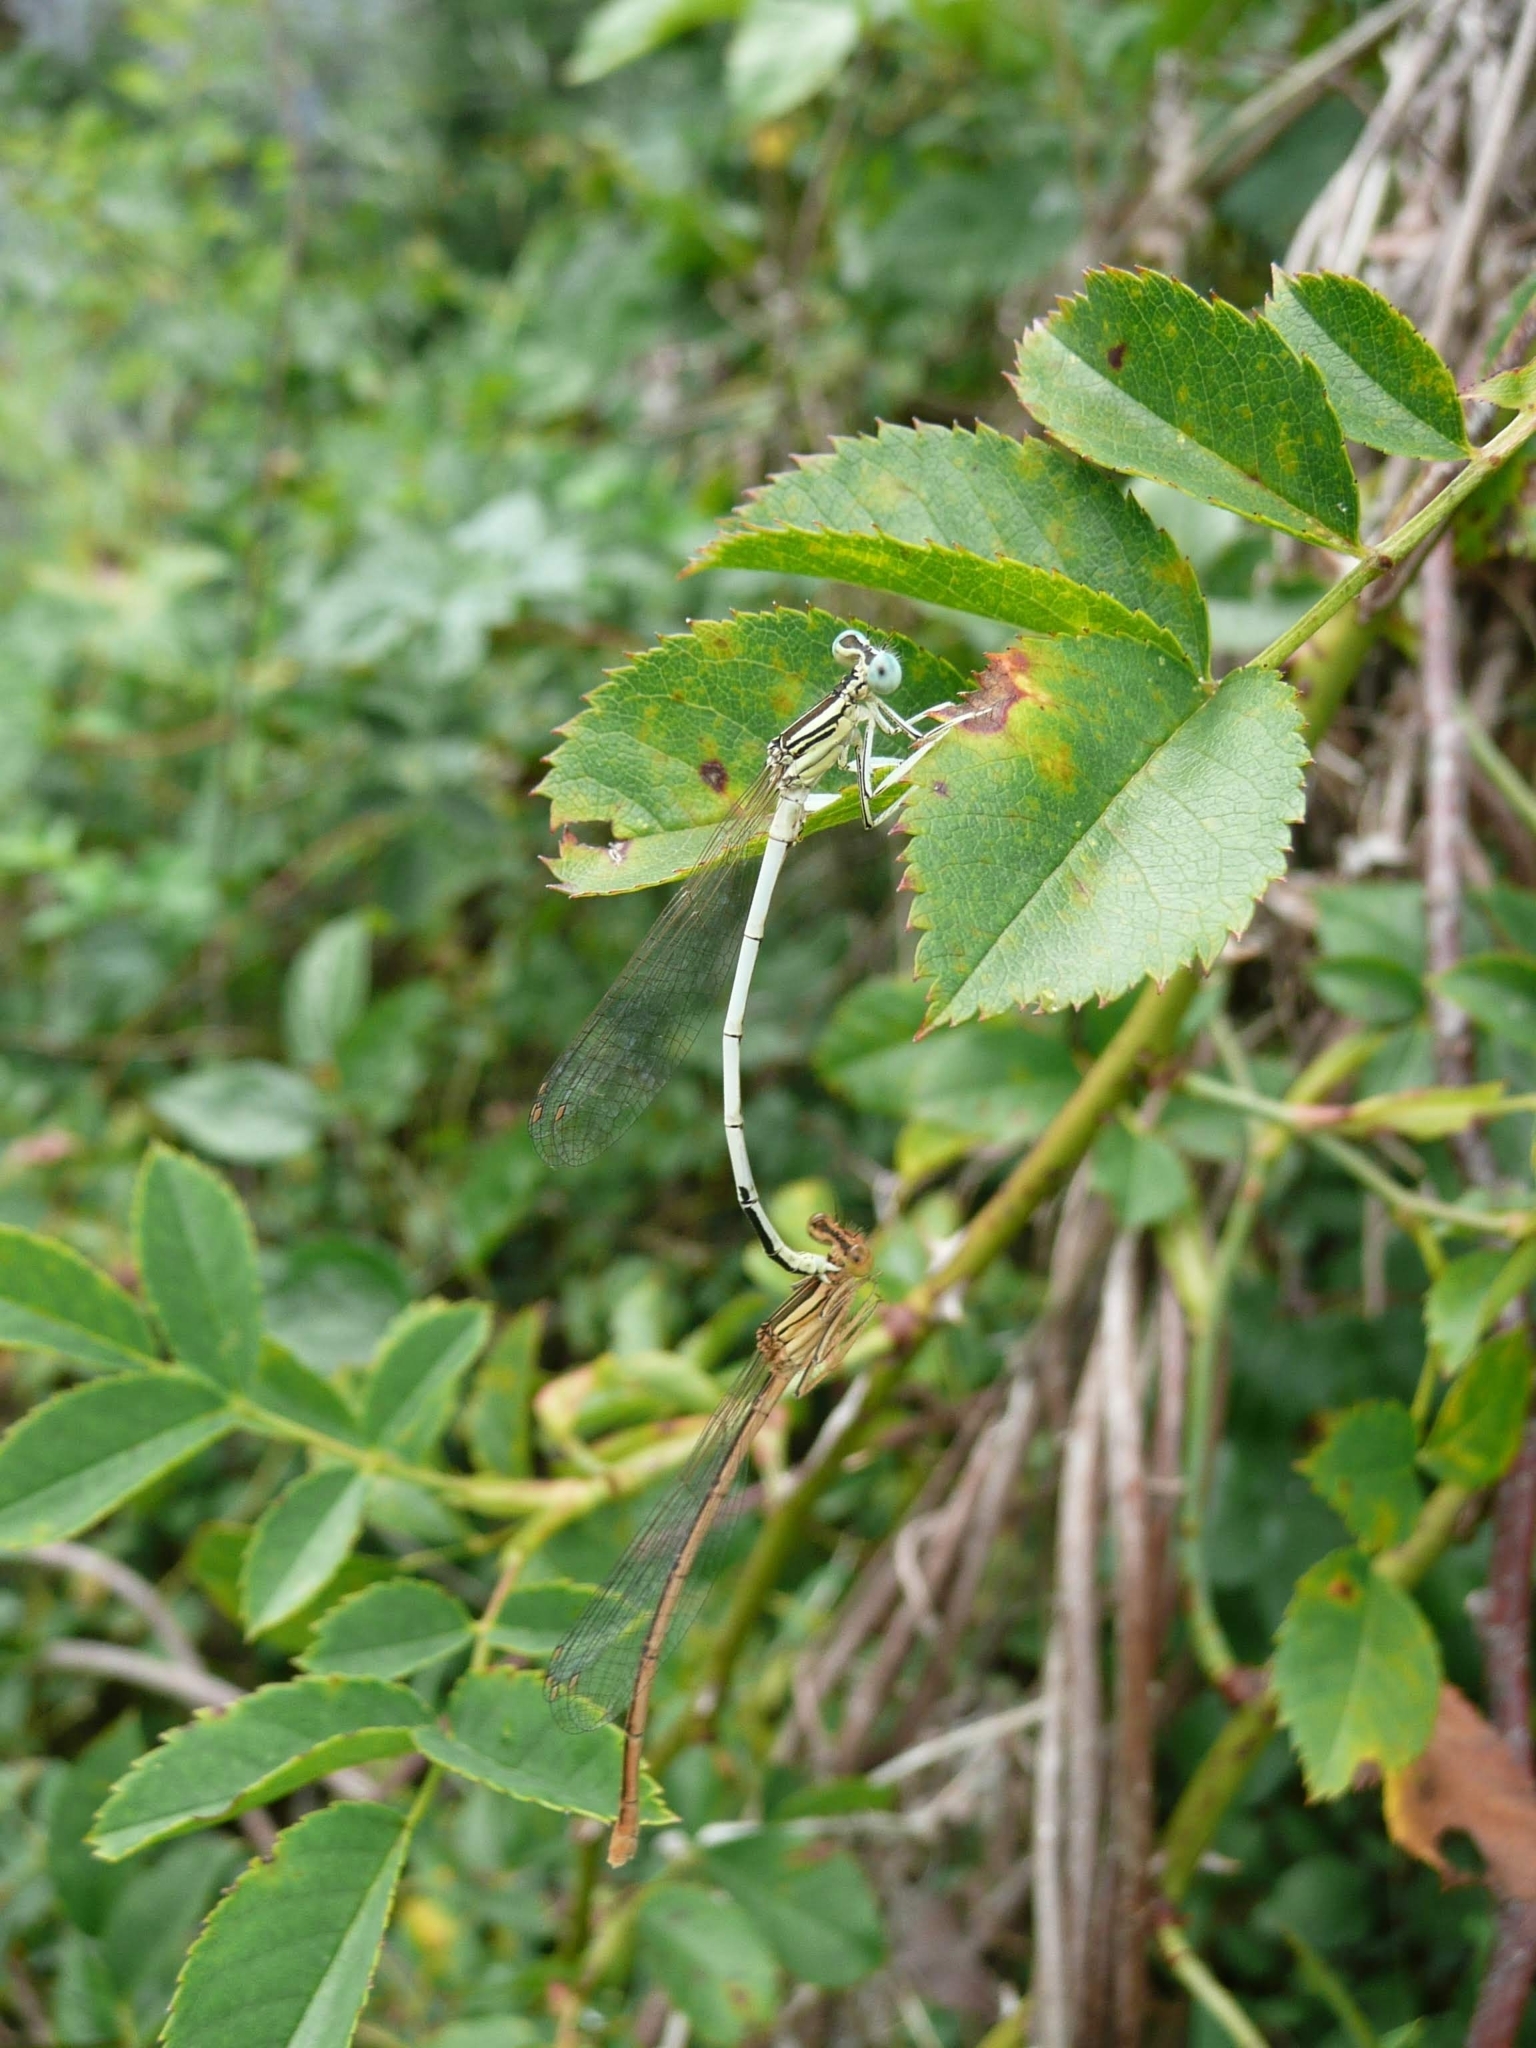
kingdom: Animalia
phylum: Arthropoda
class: Insecta
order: Odonata
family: Platycnemididae
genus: Platycnemis
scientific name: Platycnemis latipes
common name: White featherleg
